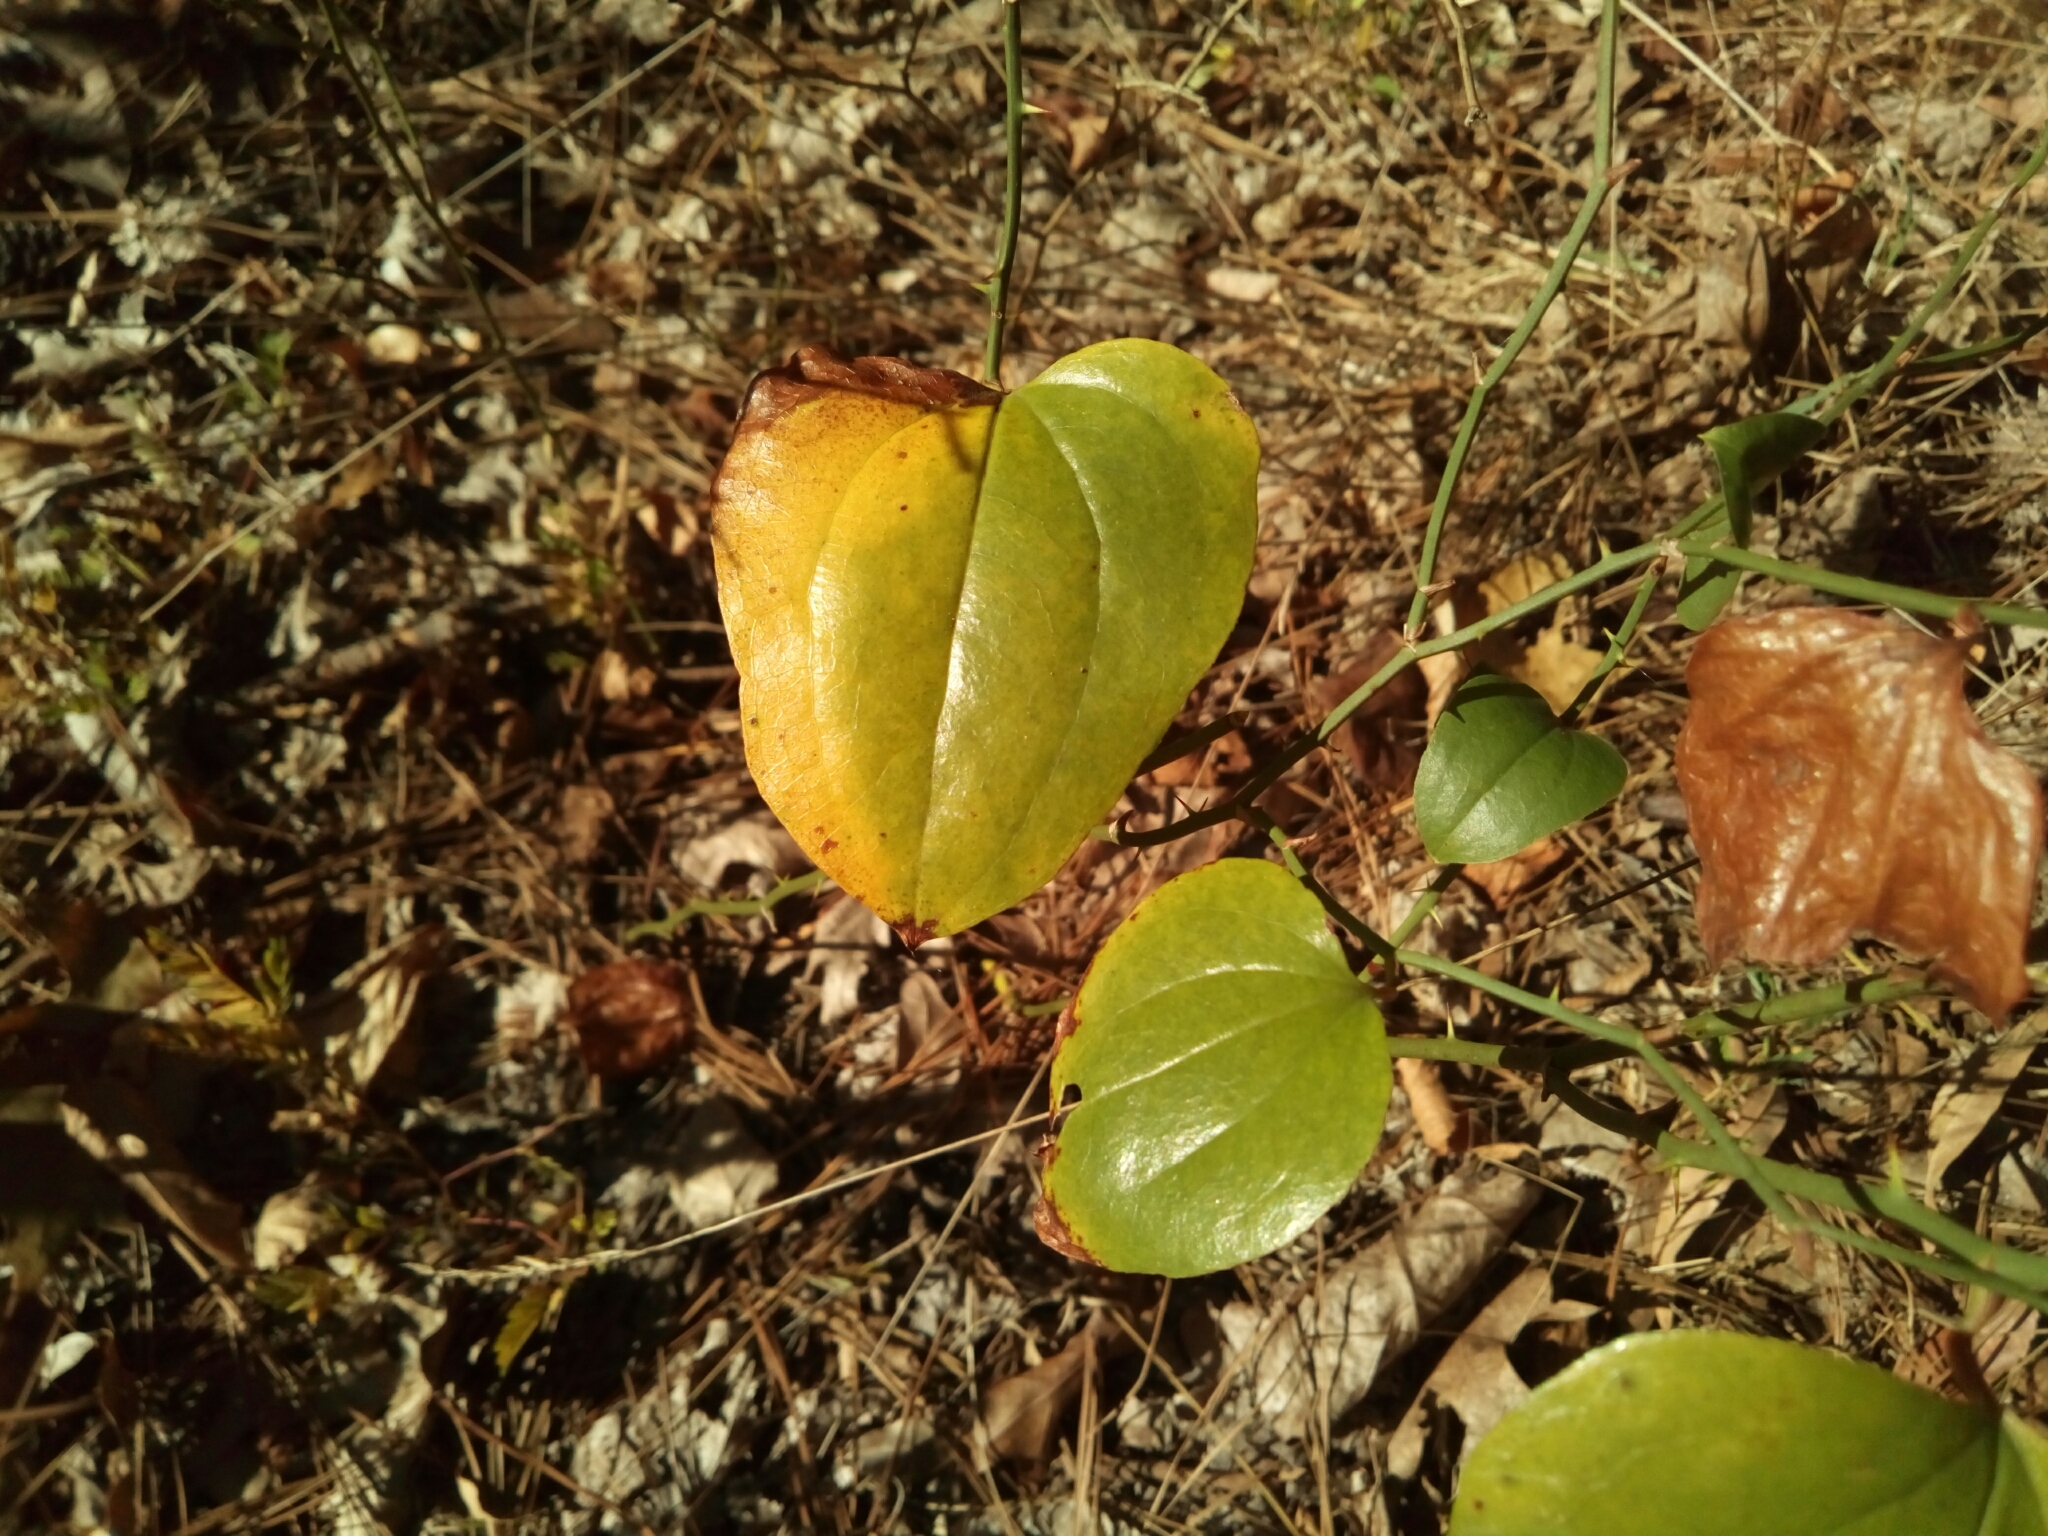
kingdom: Plantae
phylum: Tracheophyta
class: Liliopsida
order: Liliales
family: Smilacaceae
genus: Smilax
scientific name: Smilax rotundifolia
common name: Bullbriar
